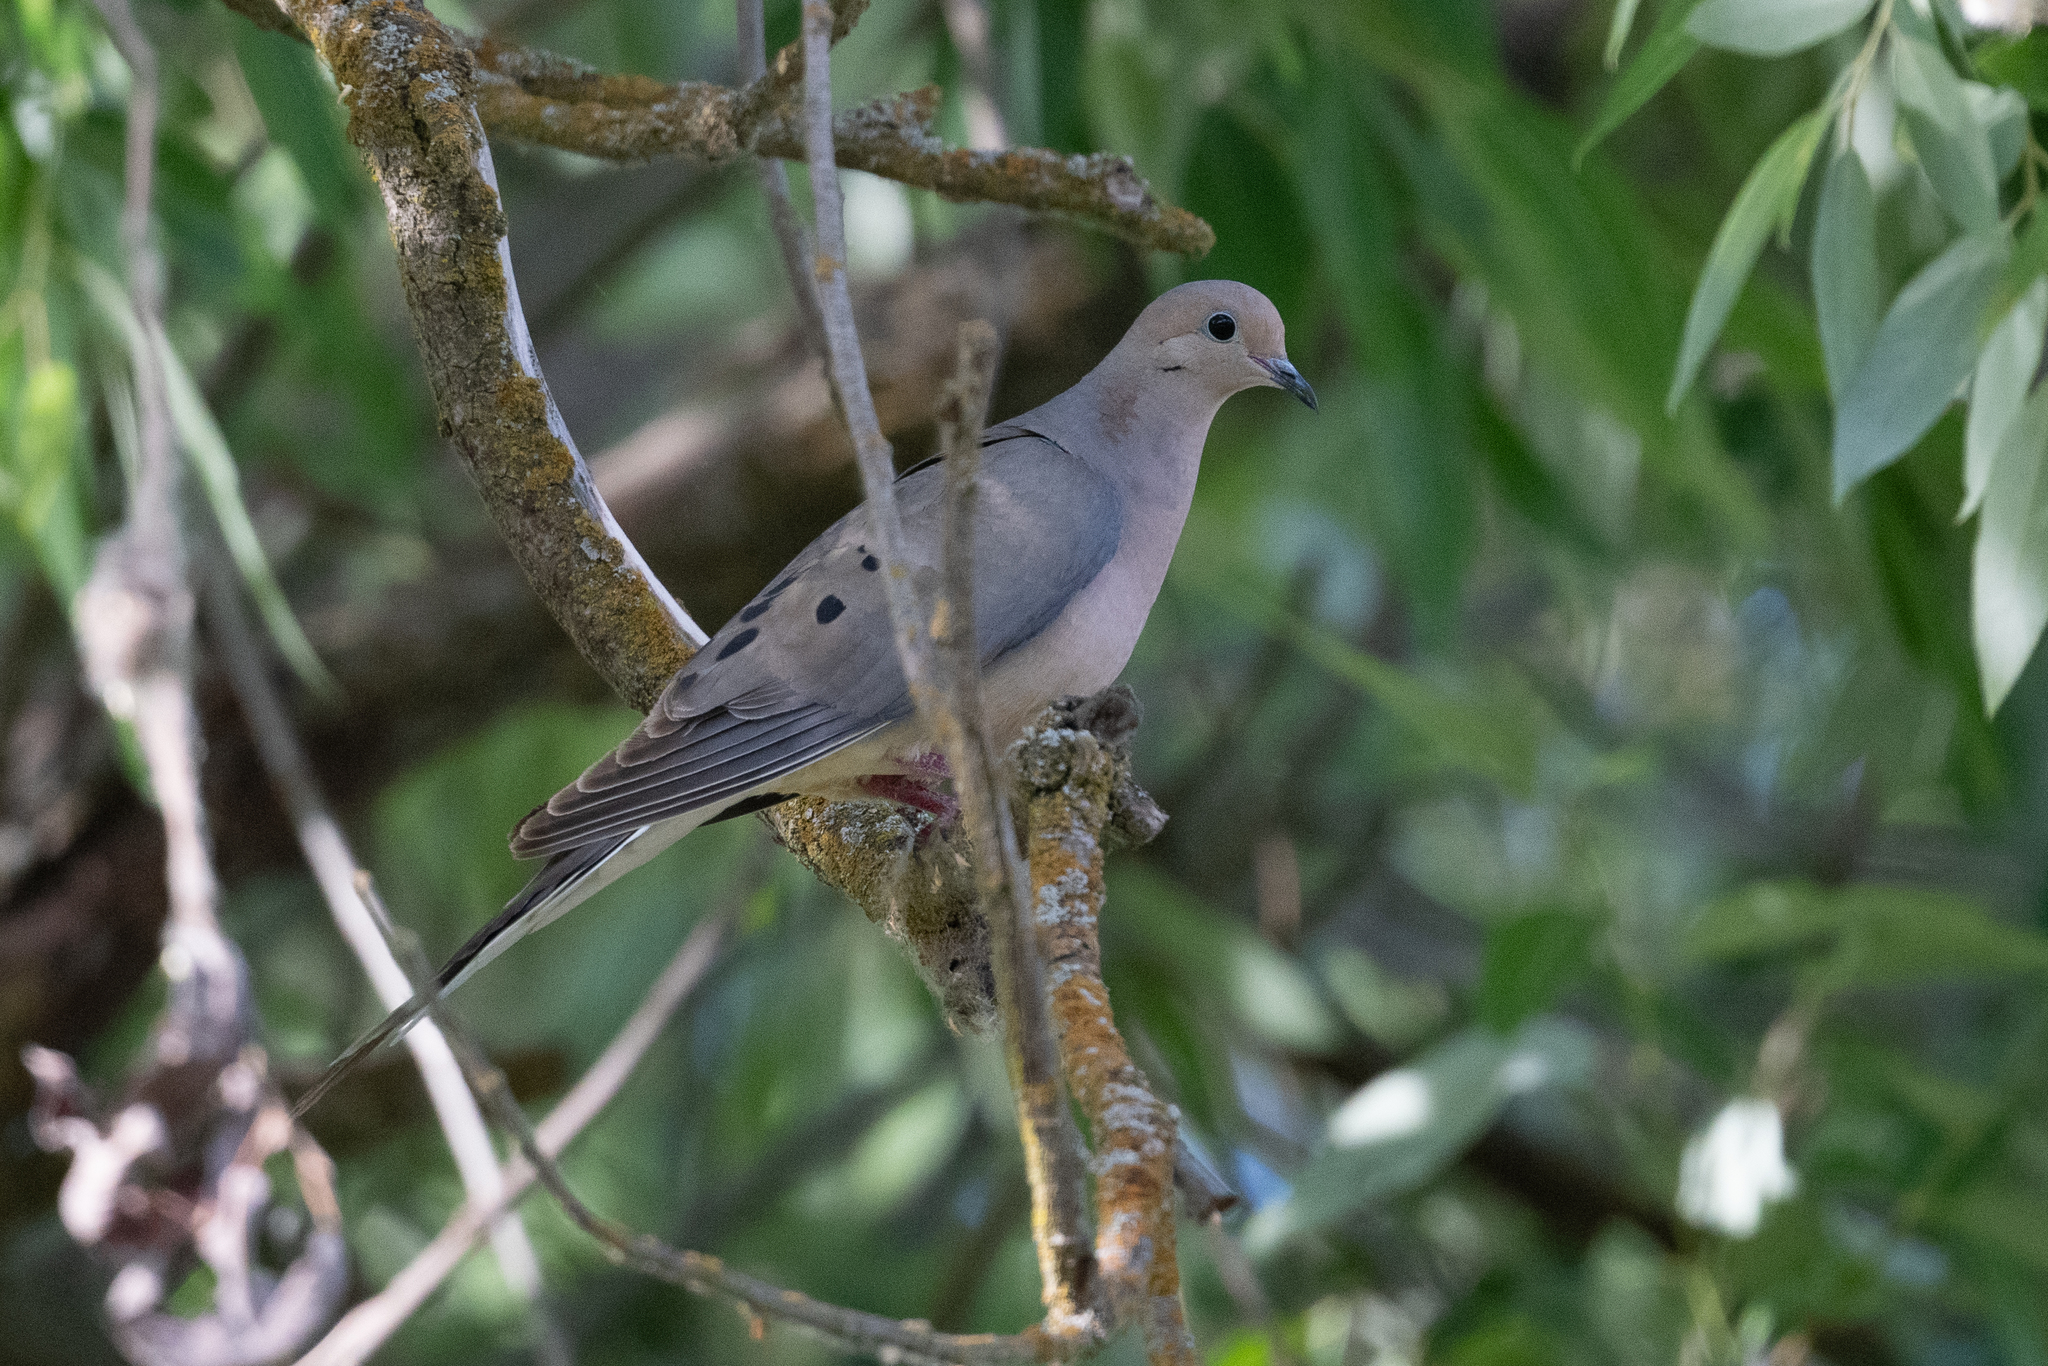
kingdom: Animalia
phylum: Chordata
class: Aves
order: Columbiformes
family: Columbidae
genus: Zenaida
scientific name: Zenaida macroura
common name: Mourning dove
